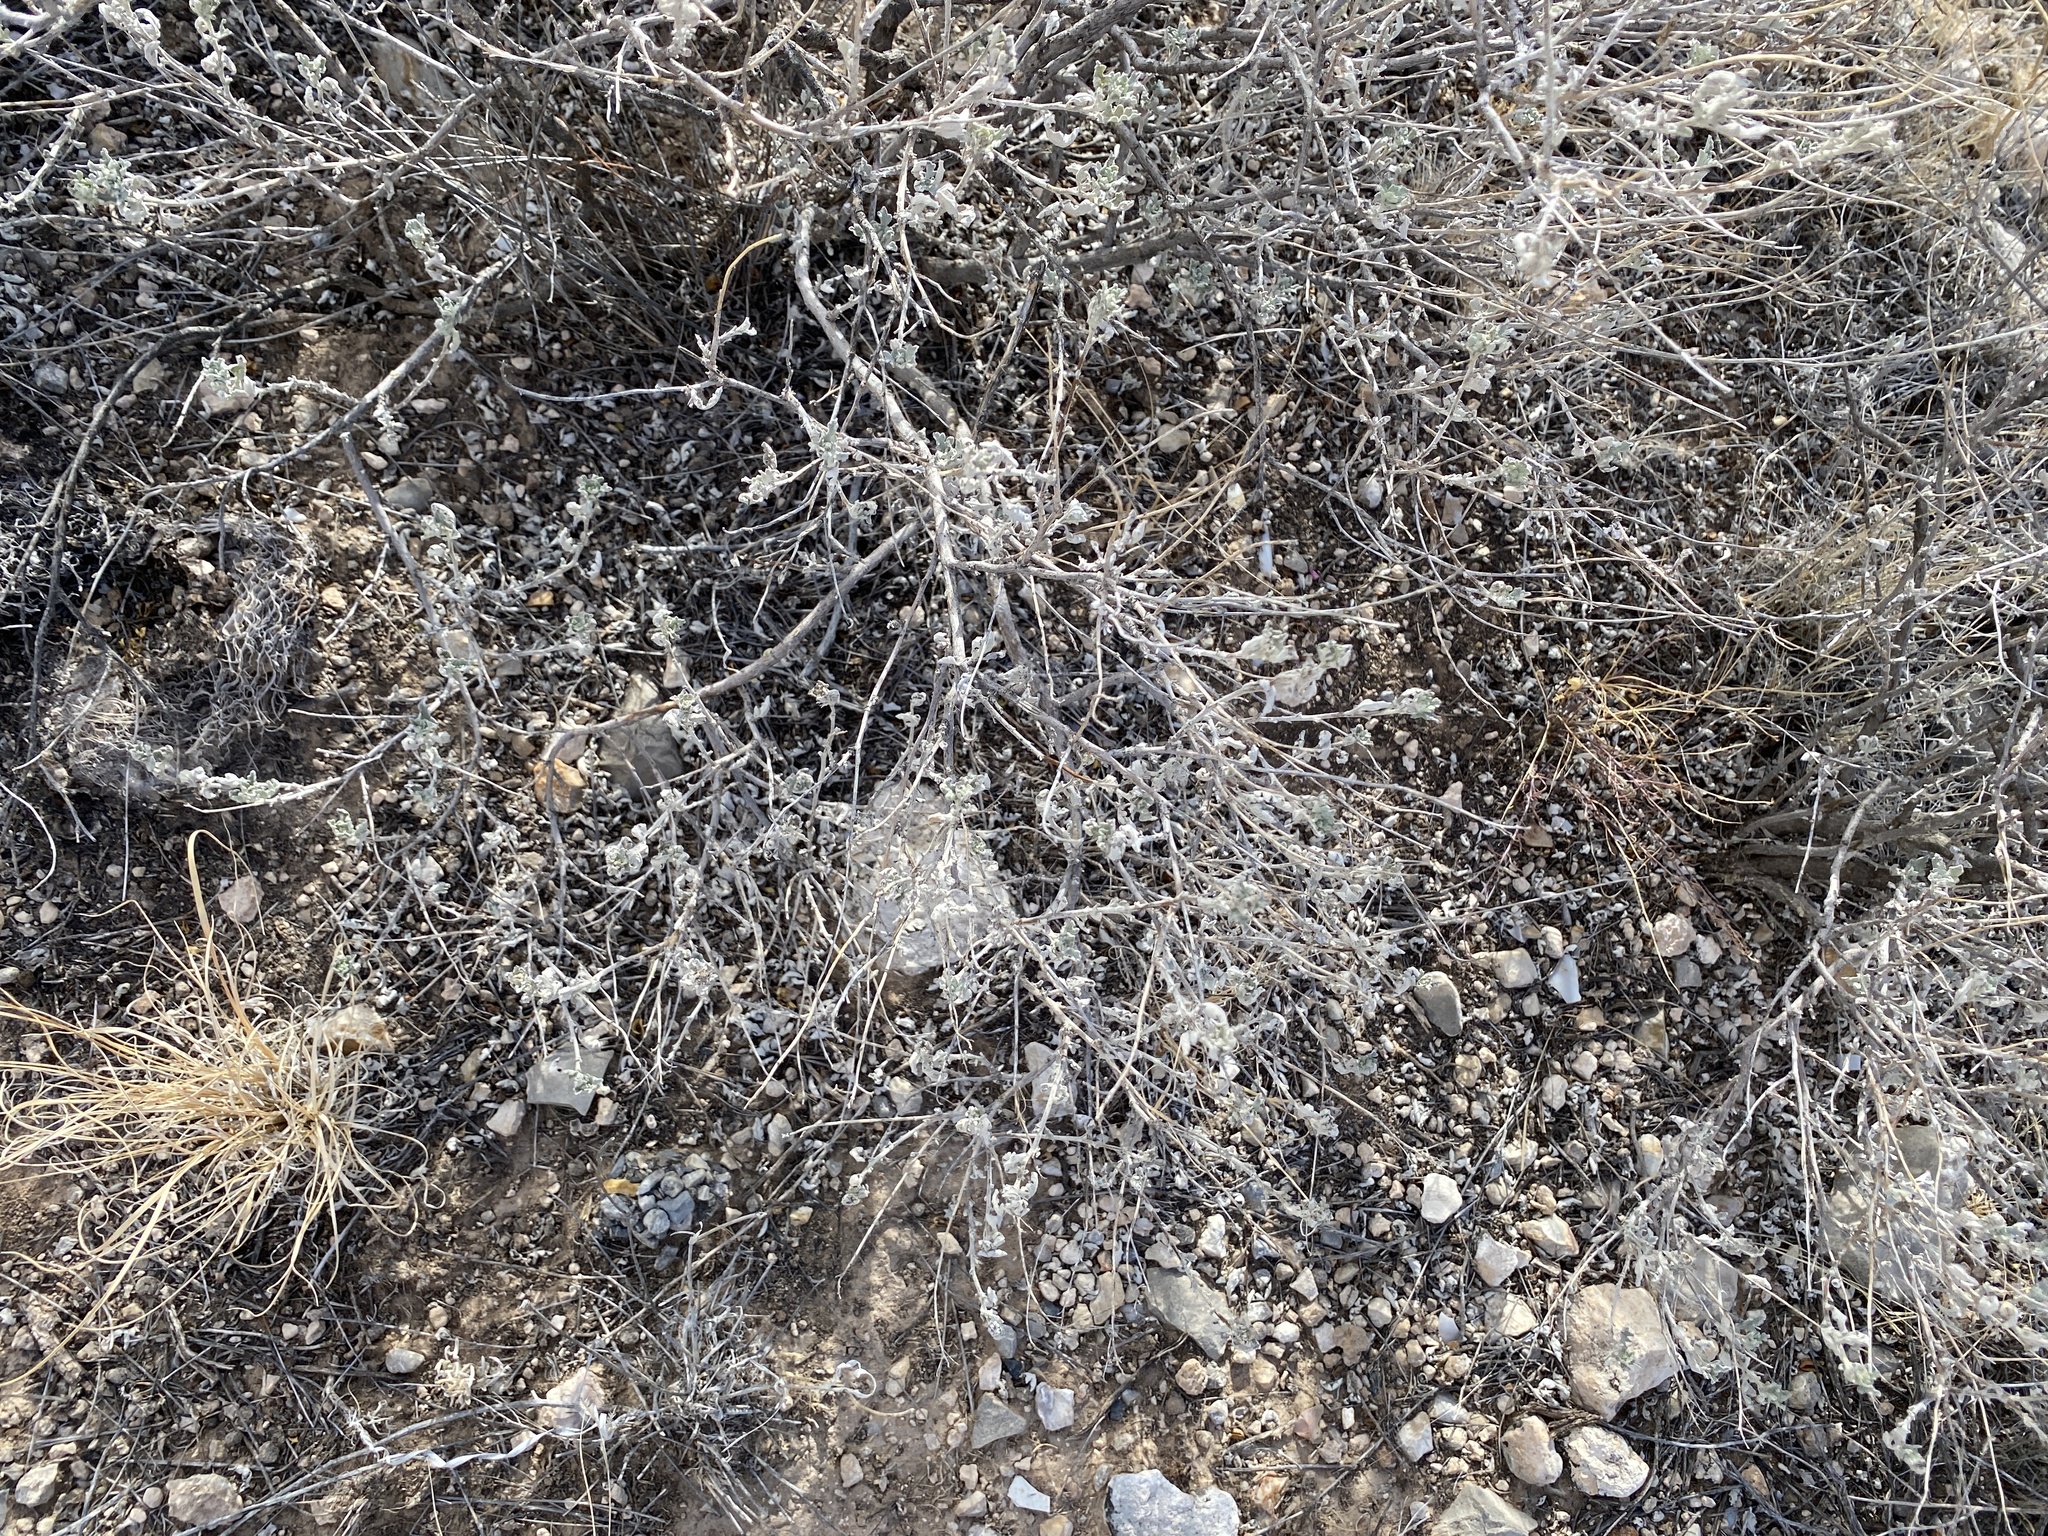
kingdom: Plantae
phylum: Tracheophyta
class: Magnoliopsida
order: Asterales
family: Asteraceae
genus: Parthenium
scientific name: Parthenium incanum
